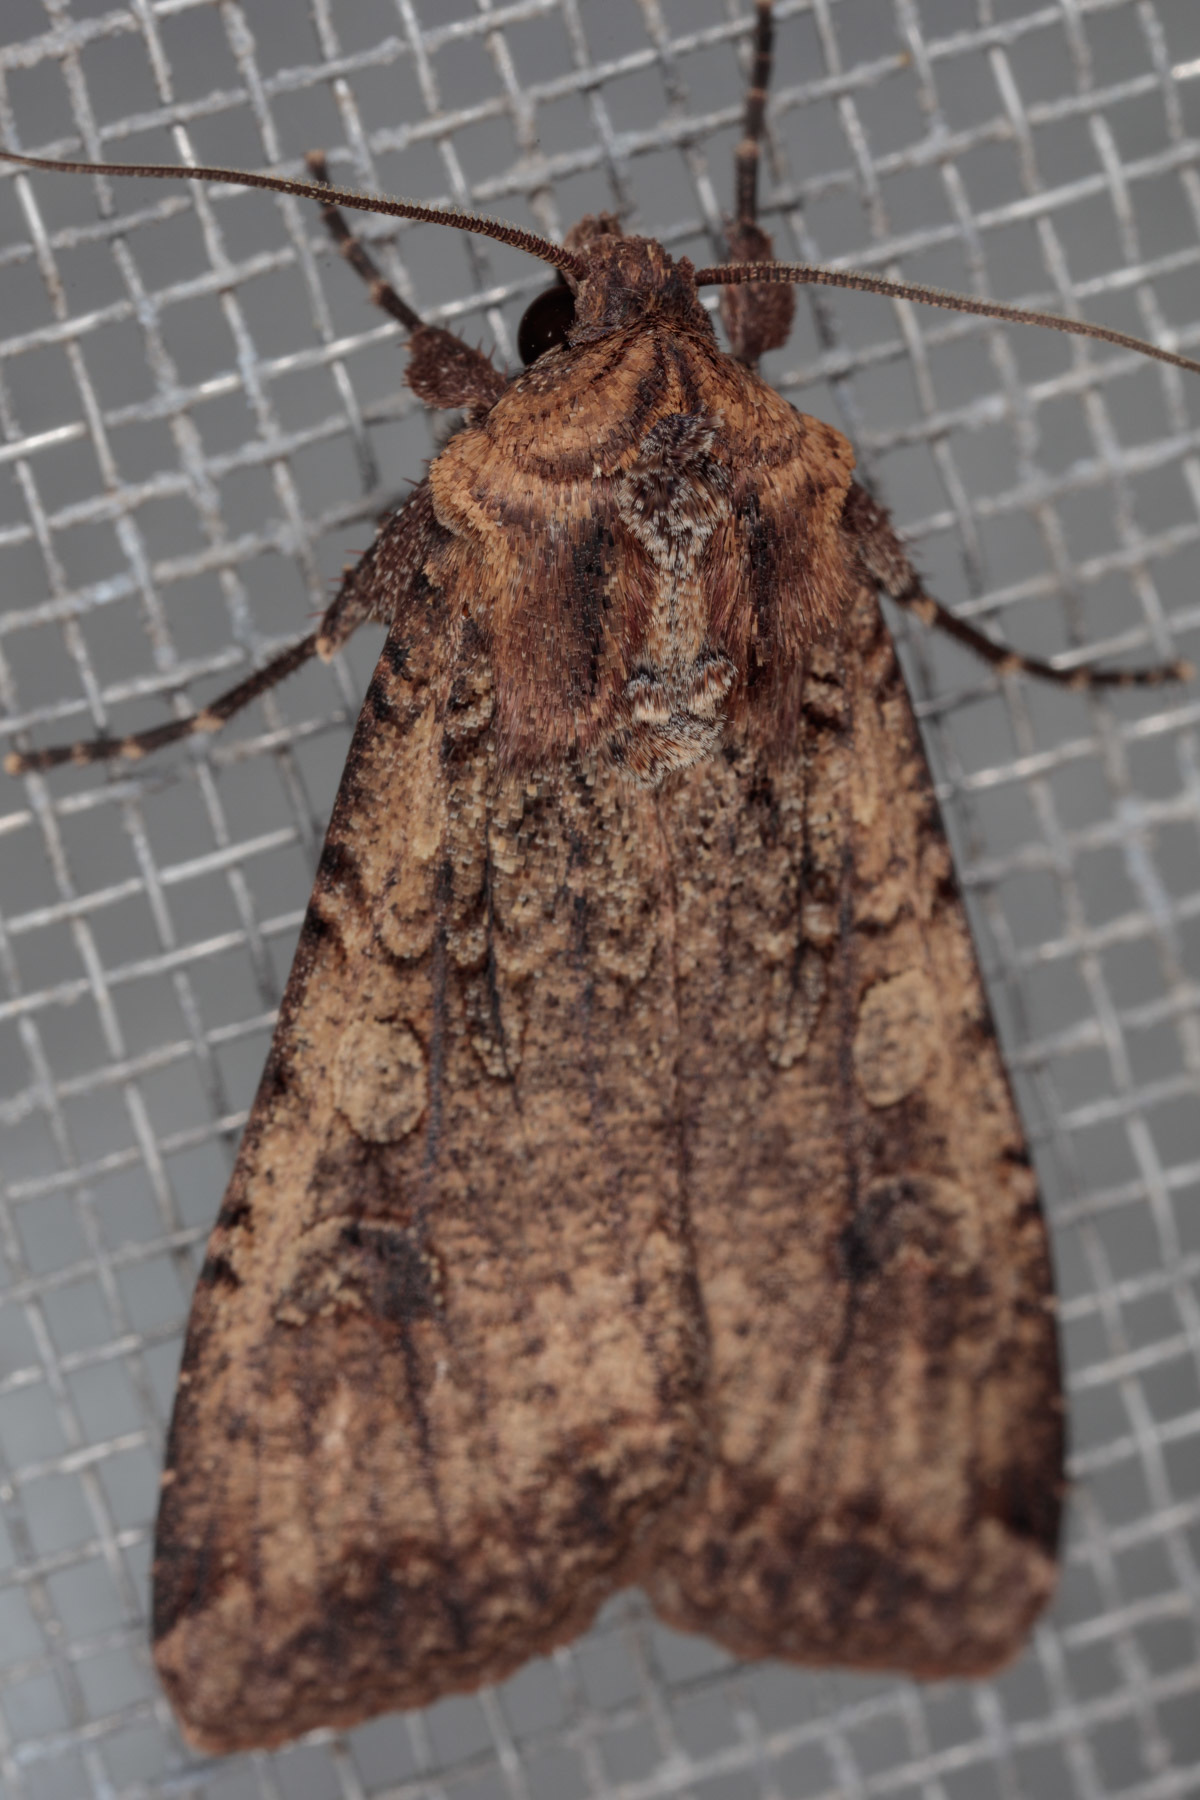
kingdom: Animalia
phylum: Arthropoda
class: Insecta
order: Lepidoptera
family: Noctuidae
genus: Peridroma
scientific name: Peridroma saucia
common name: Pearly underwing
